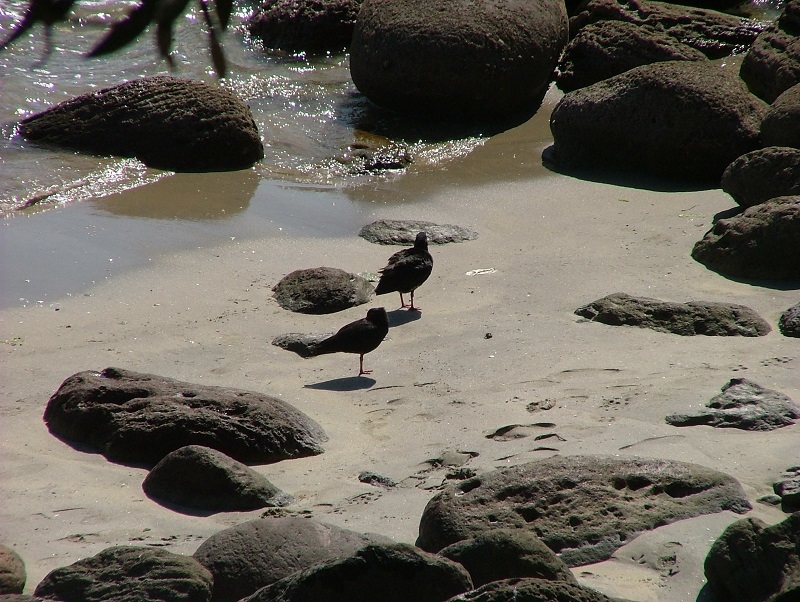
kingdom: Animalia
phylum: Chordata
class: Aves
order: Charadriiformes
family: Haematopodidae
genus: Haematopus
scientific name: Haematopus unicolor
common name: Variable oystercatcher
